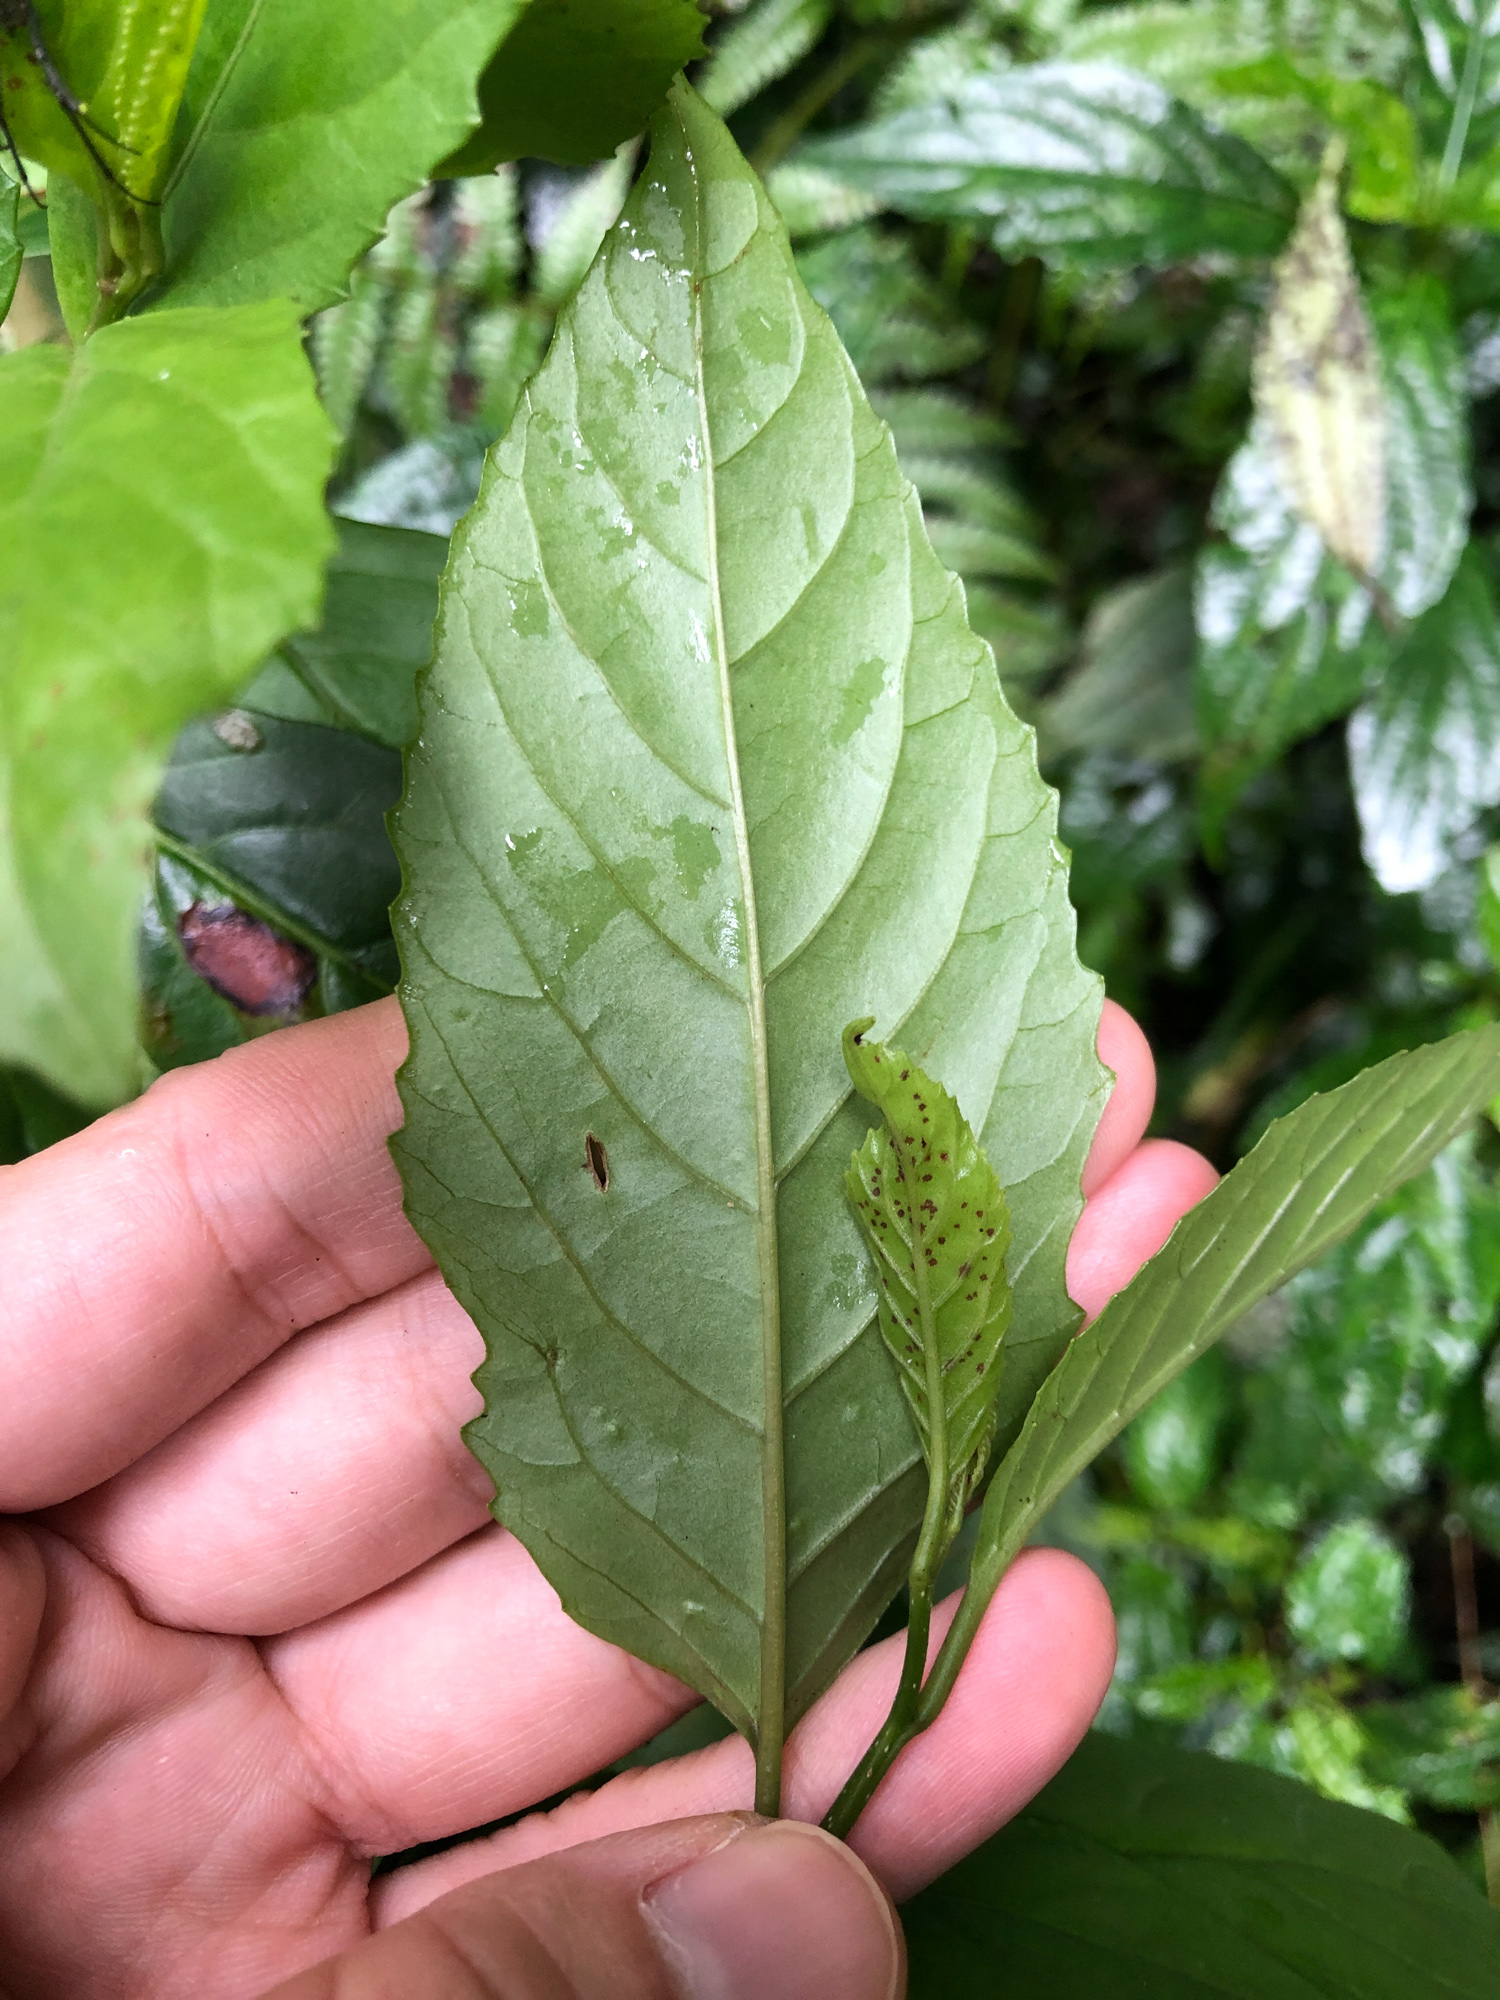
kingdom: Plantae
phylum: Tracheophyta
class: Magnoliopsida
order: Ericales
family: Primulaceae
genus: Maesa
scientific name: Maesa perlaria
